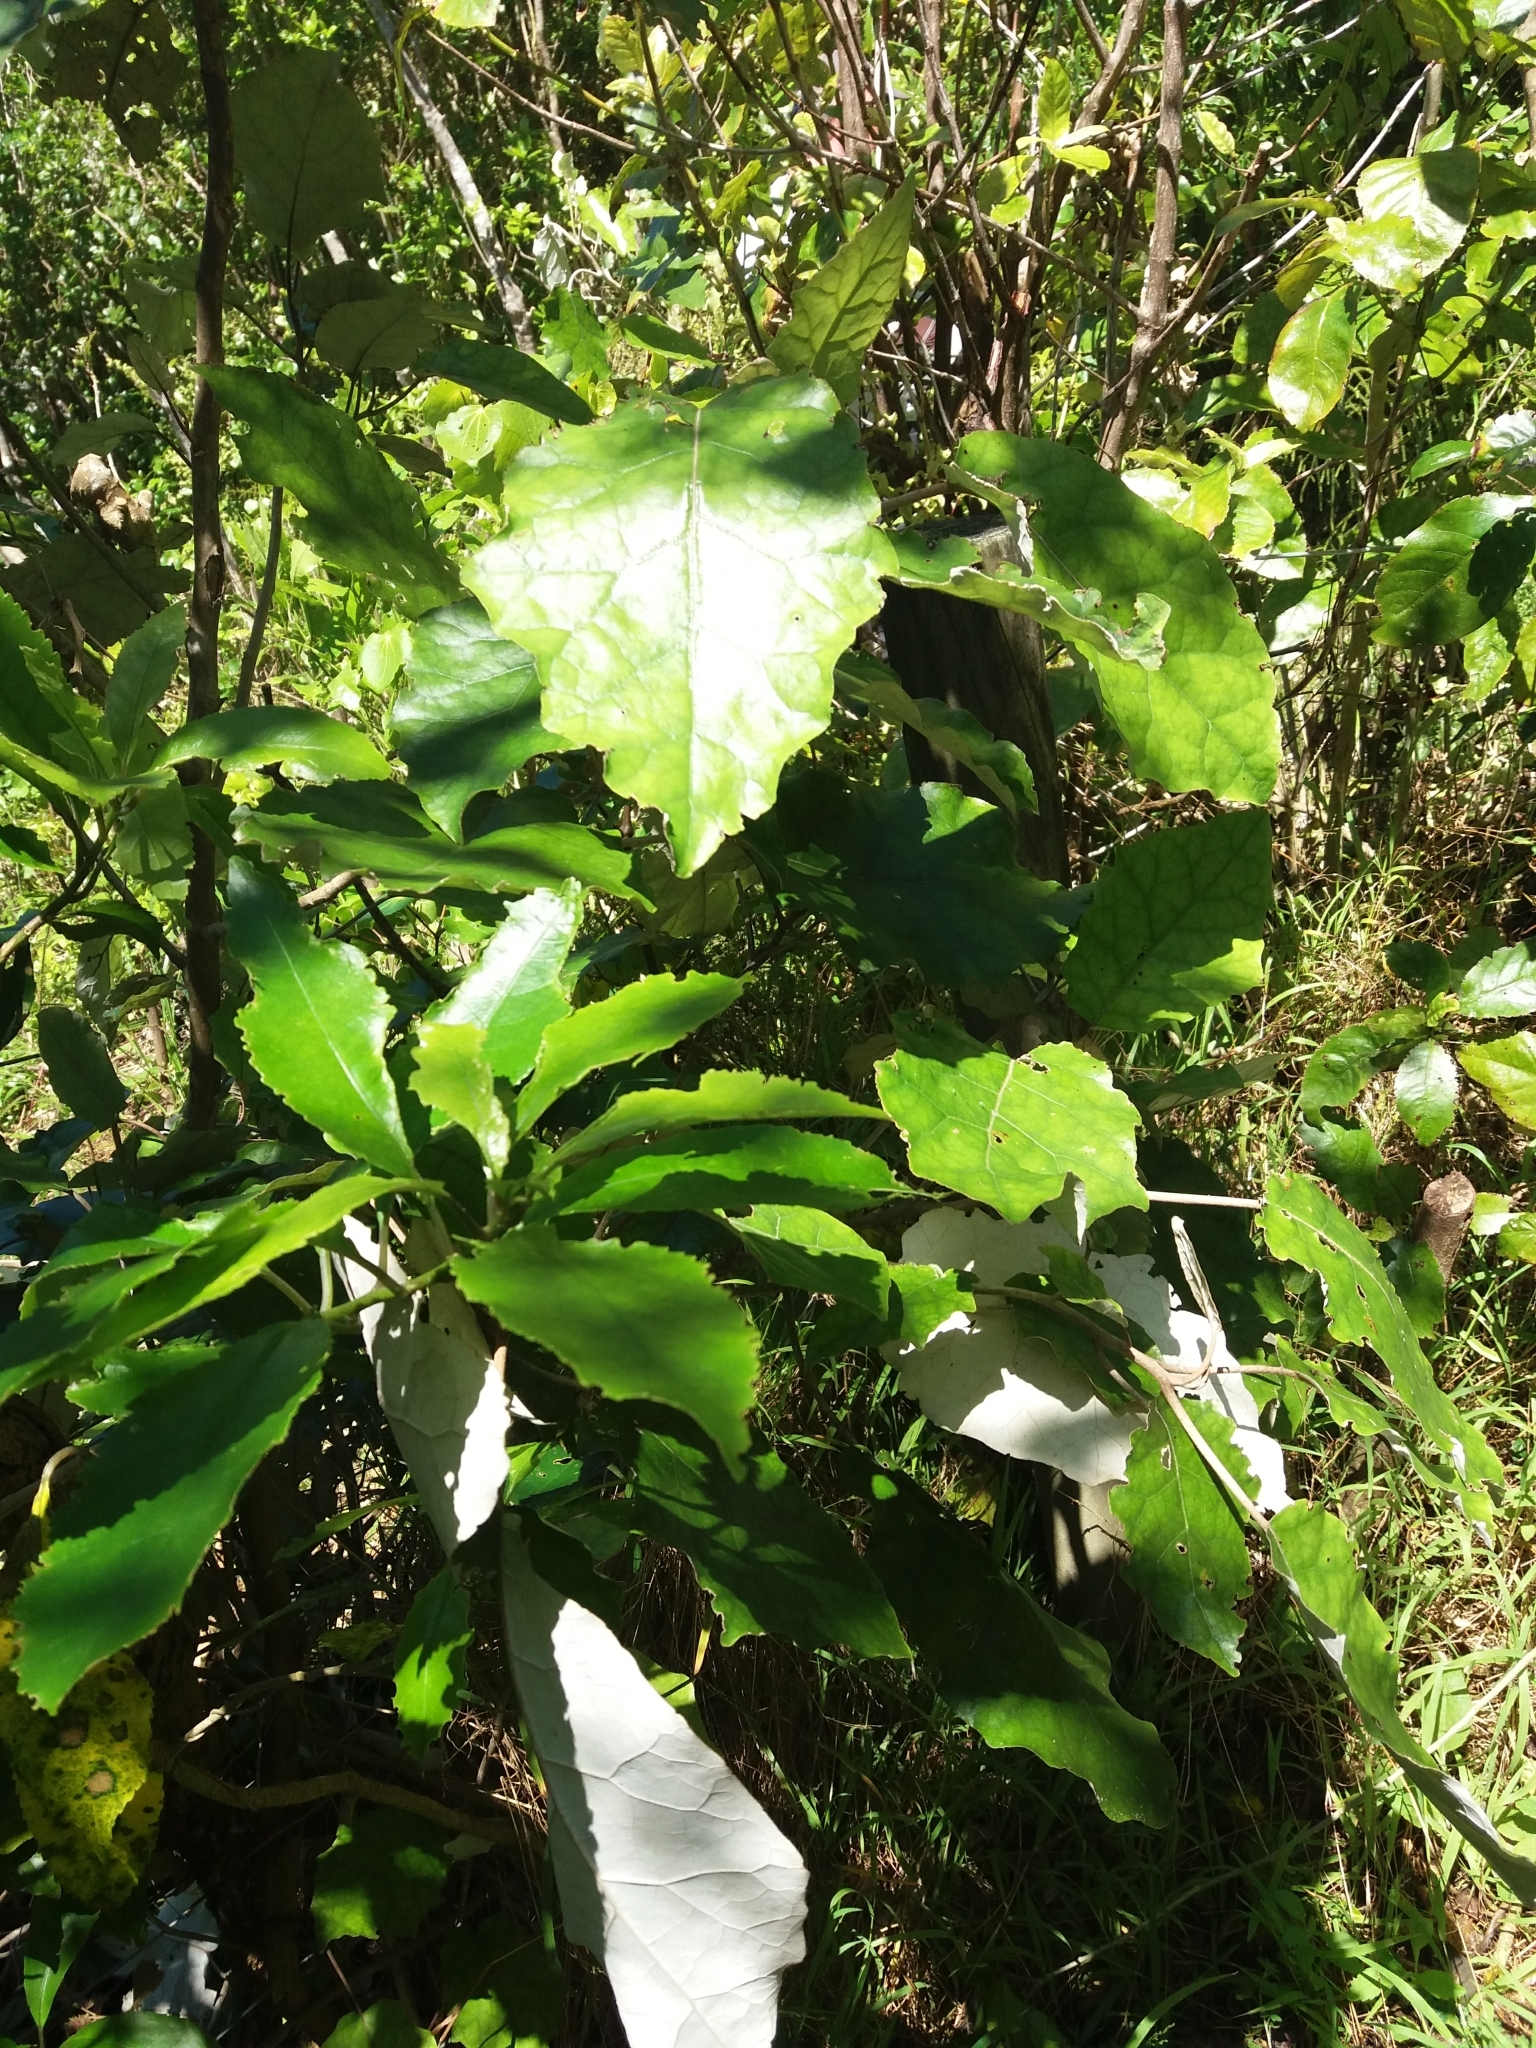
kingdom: Plantae
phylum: Tracheophyta
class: Magnoliopsida
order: Asterales
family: Asteraceae
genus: Brachyglottis
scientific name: Brachyglottis repanda
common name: Hedge ragwort
